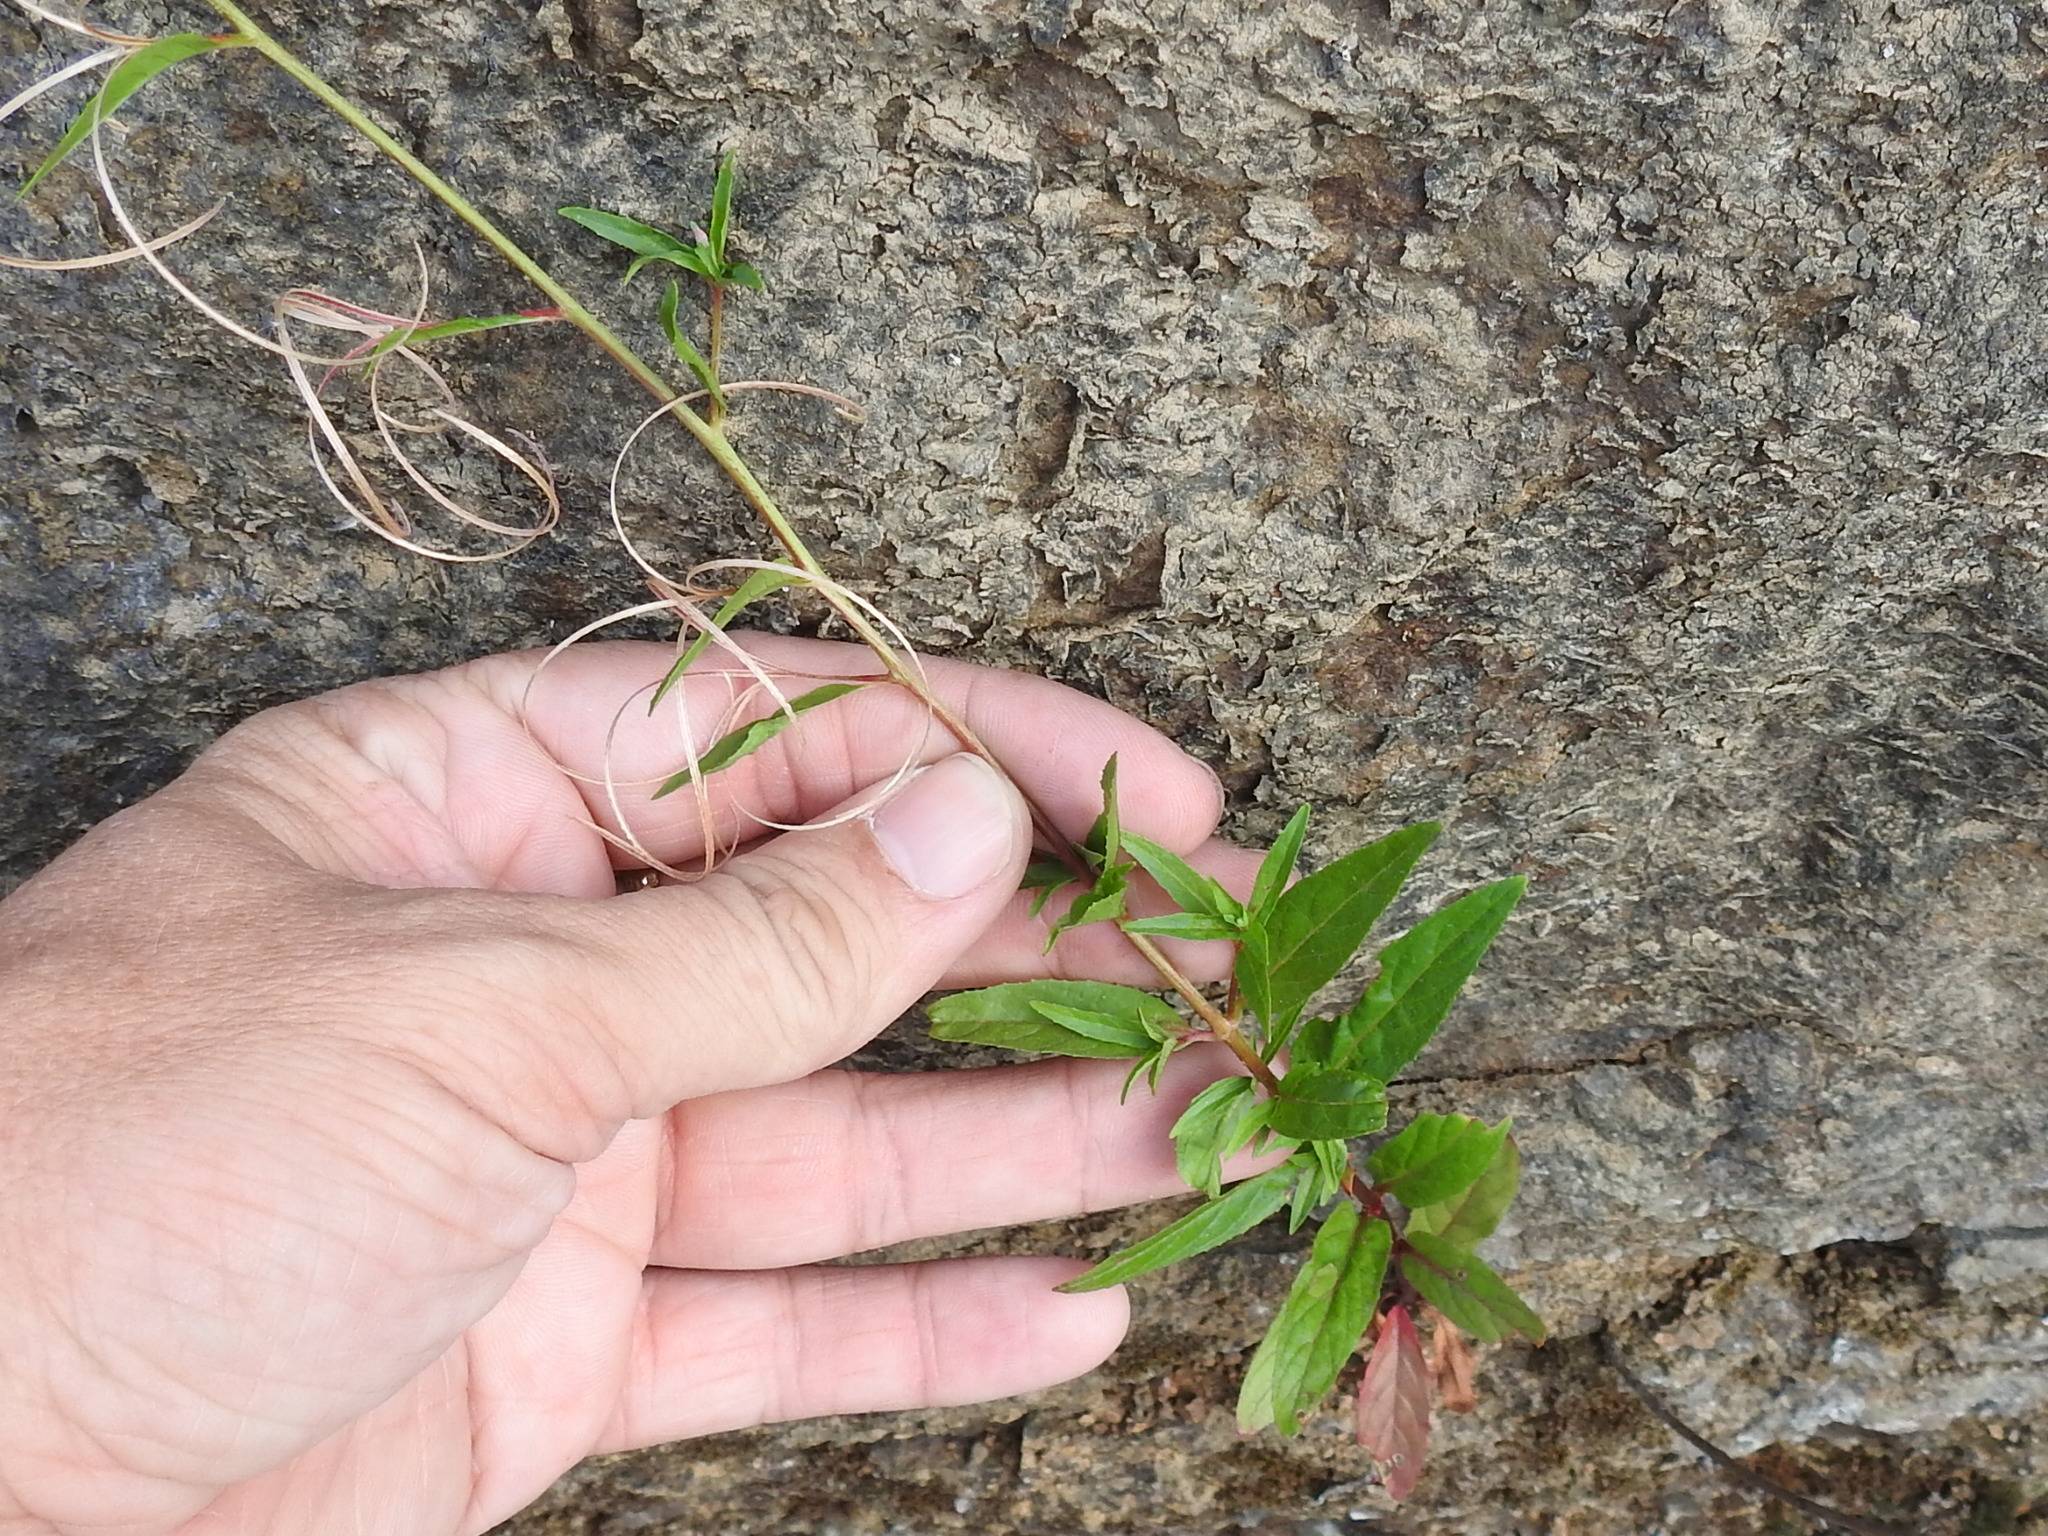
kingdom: Plantae
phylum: Tracheophyta
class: Magnoliopsida
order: Myrtales
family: Onagraceae
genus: Epilobium
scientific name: Epilobium ciliatum
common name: American willowherb
